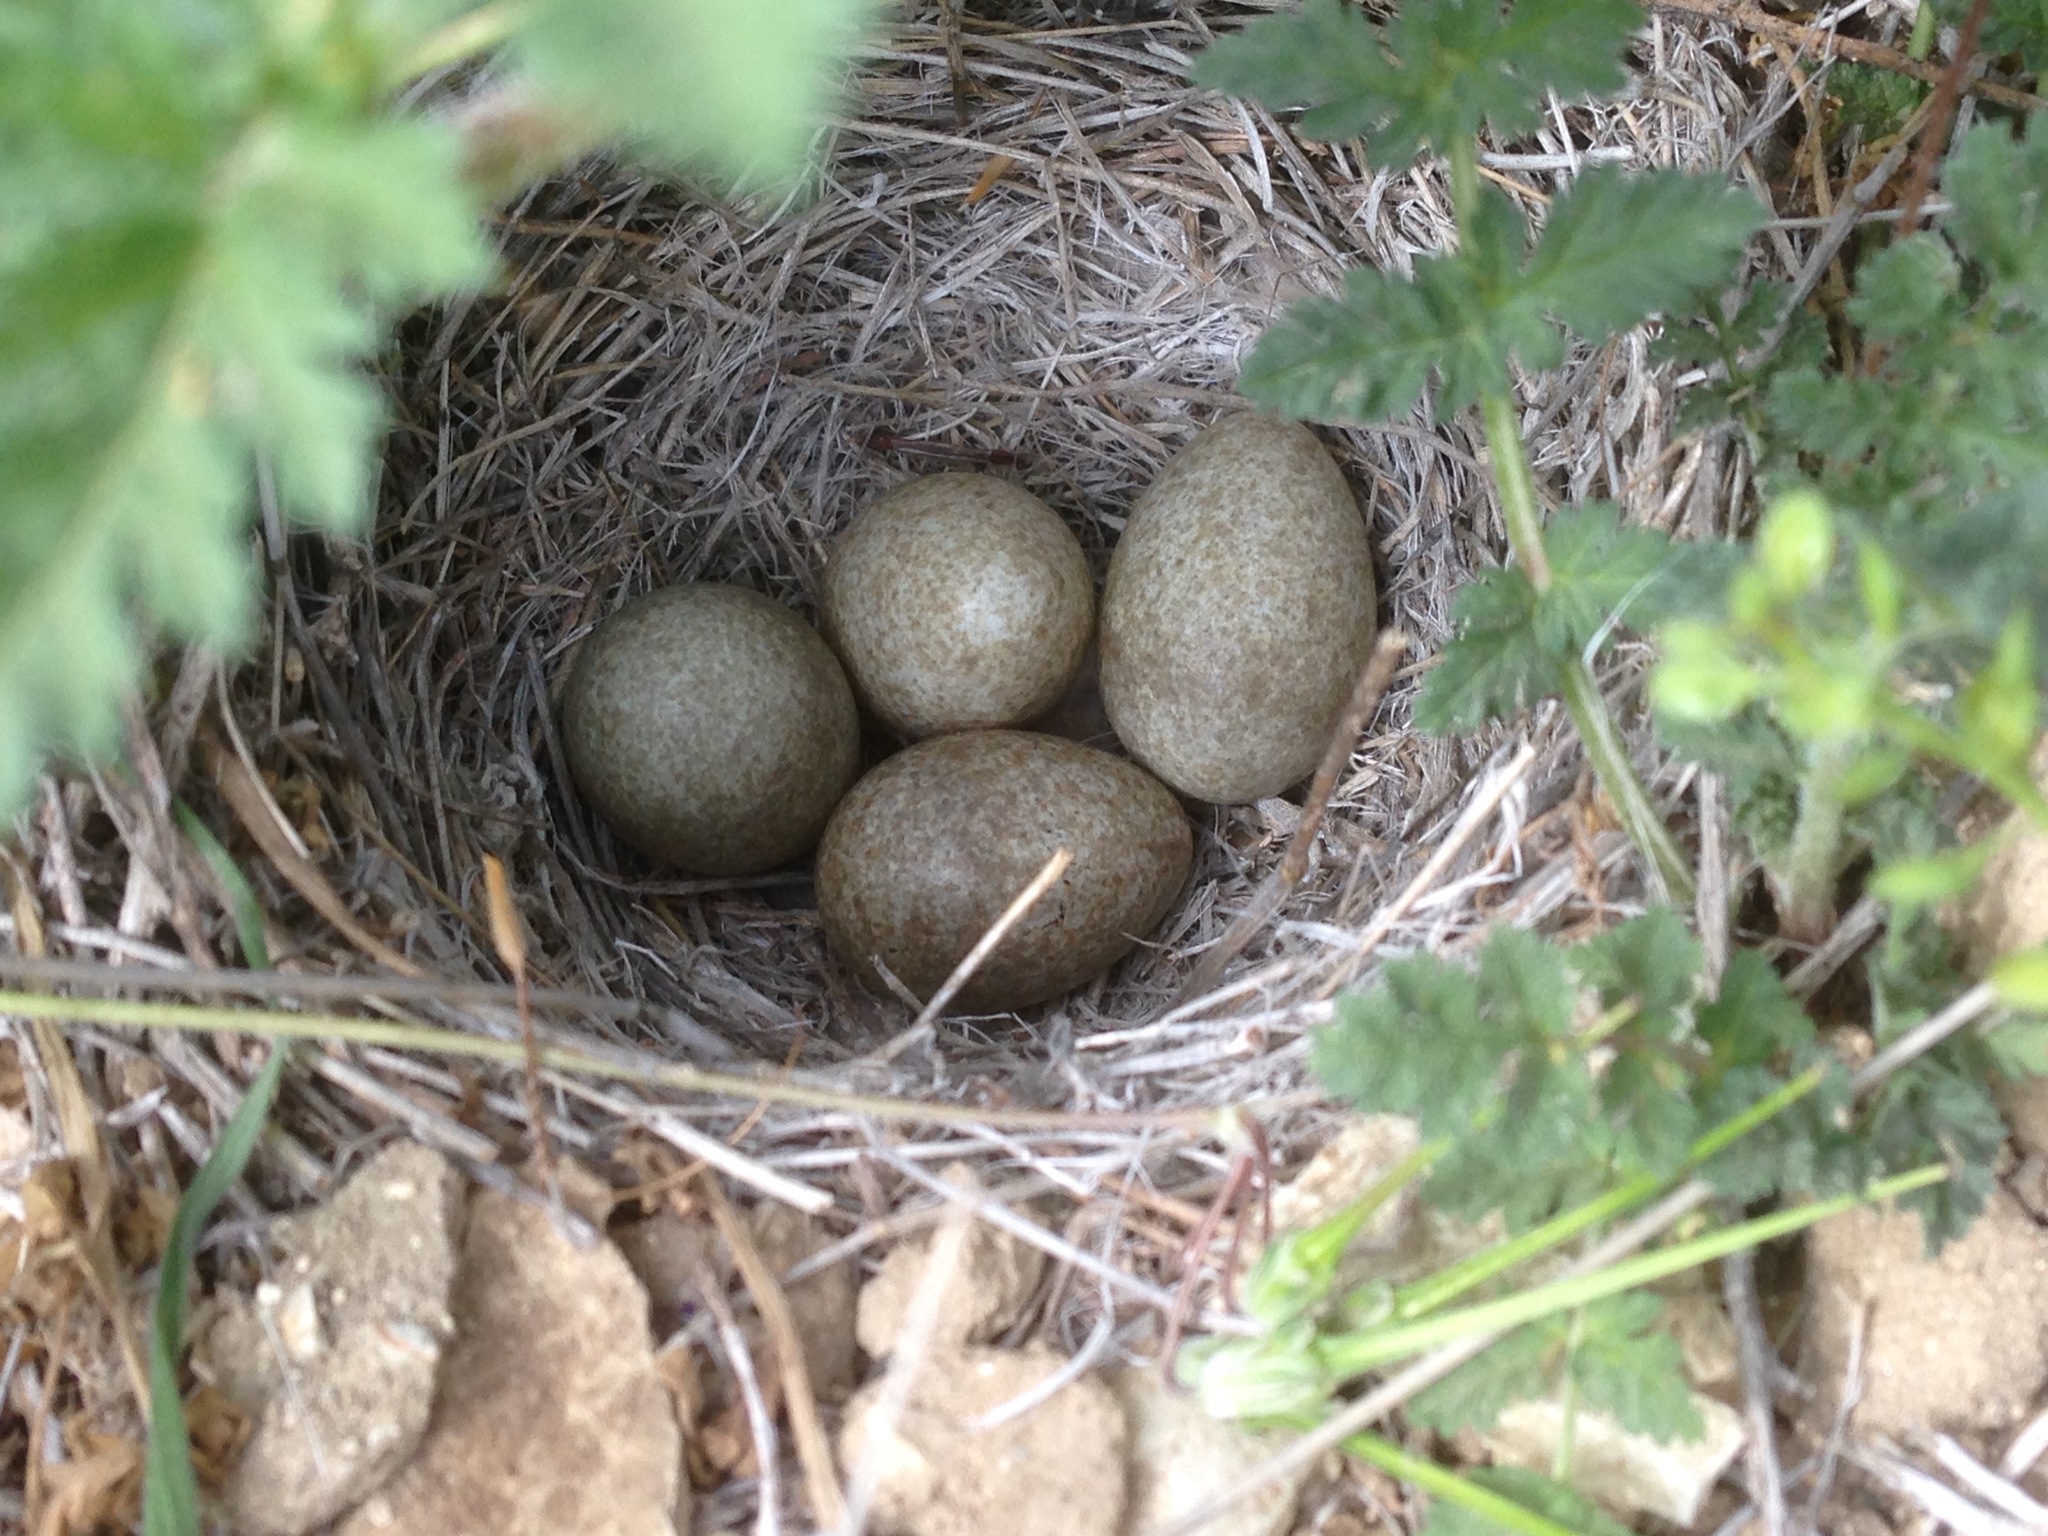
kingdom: Animalia
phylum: Chordata
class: Aves
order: Passeriformes
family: Alaudidae
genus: Eremophila
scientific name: Eremophila alpestris
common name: Horned lark
